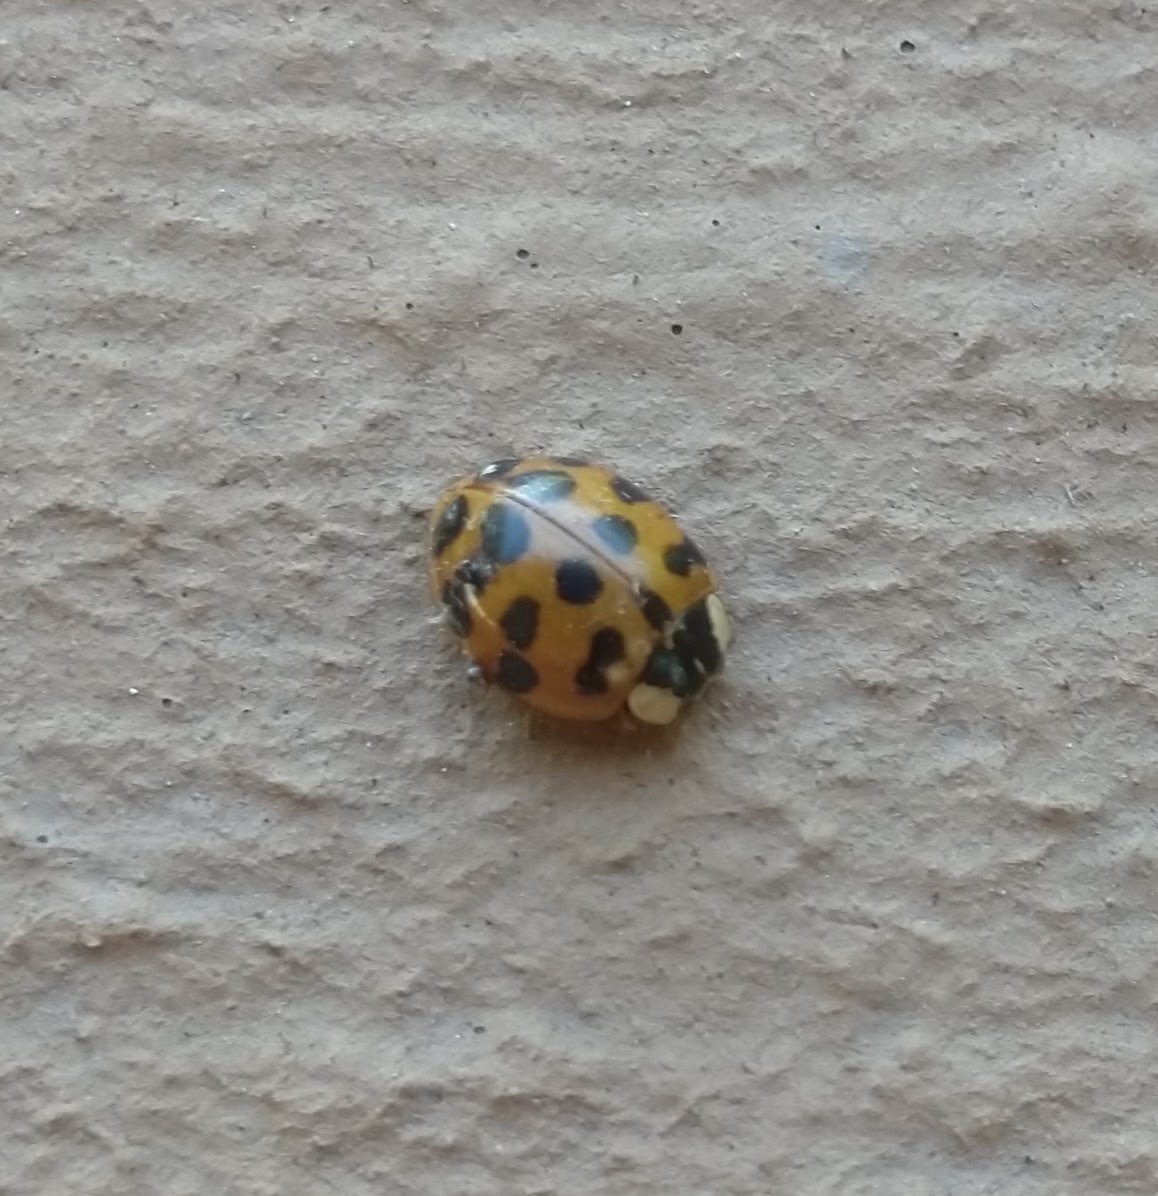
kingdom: Animalia
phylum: Arthropoda
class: Insecta
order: Coleoptera
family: Coccinellidae
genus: Harmonia
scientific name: Harmonia axyridis
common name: Harlequin ladybird
